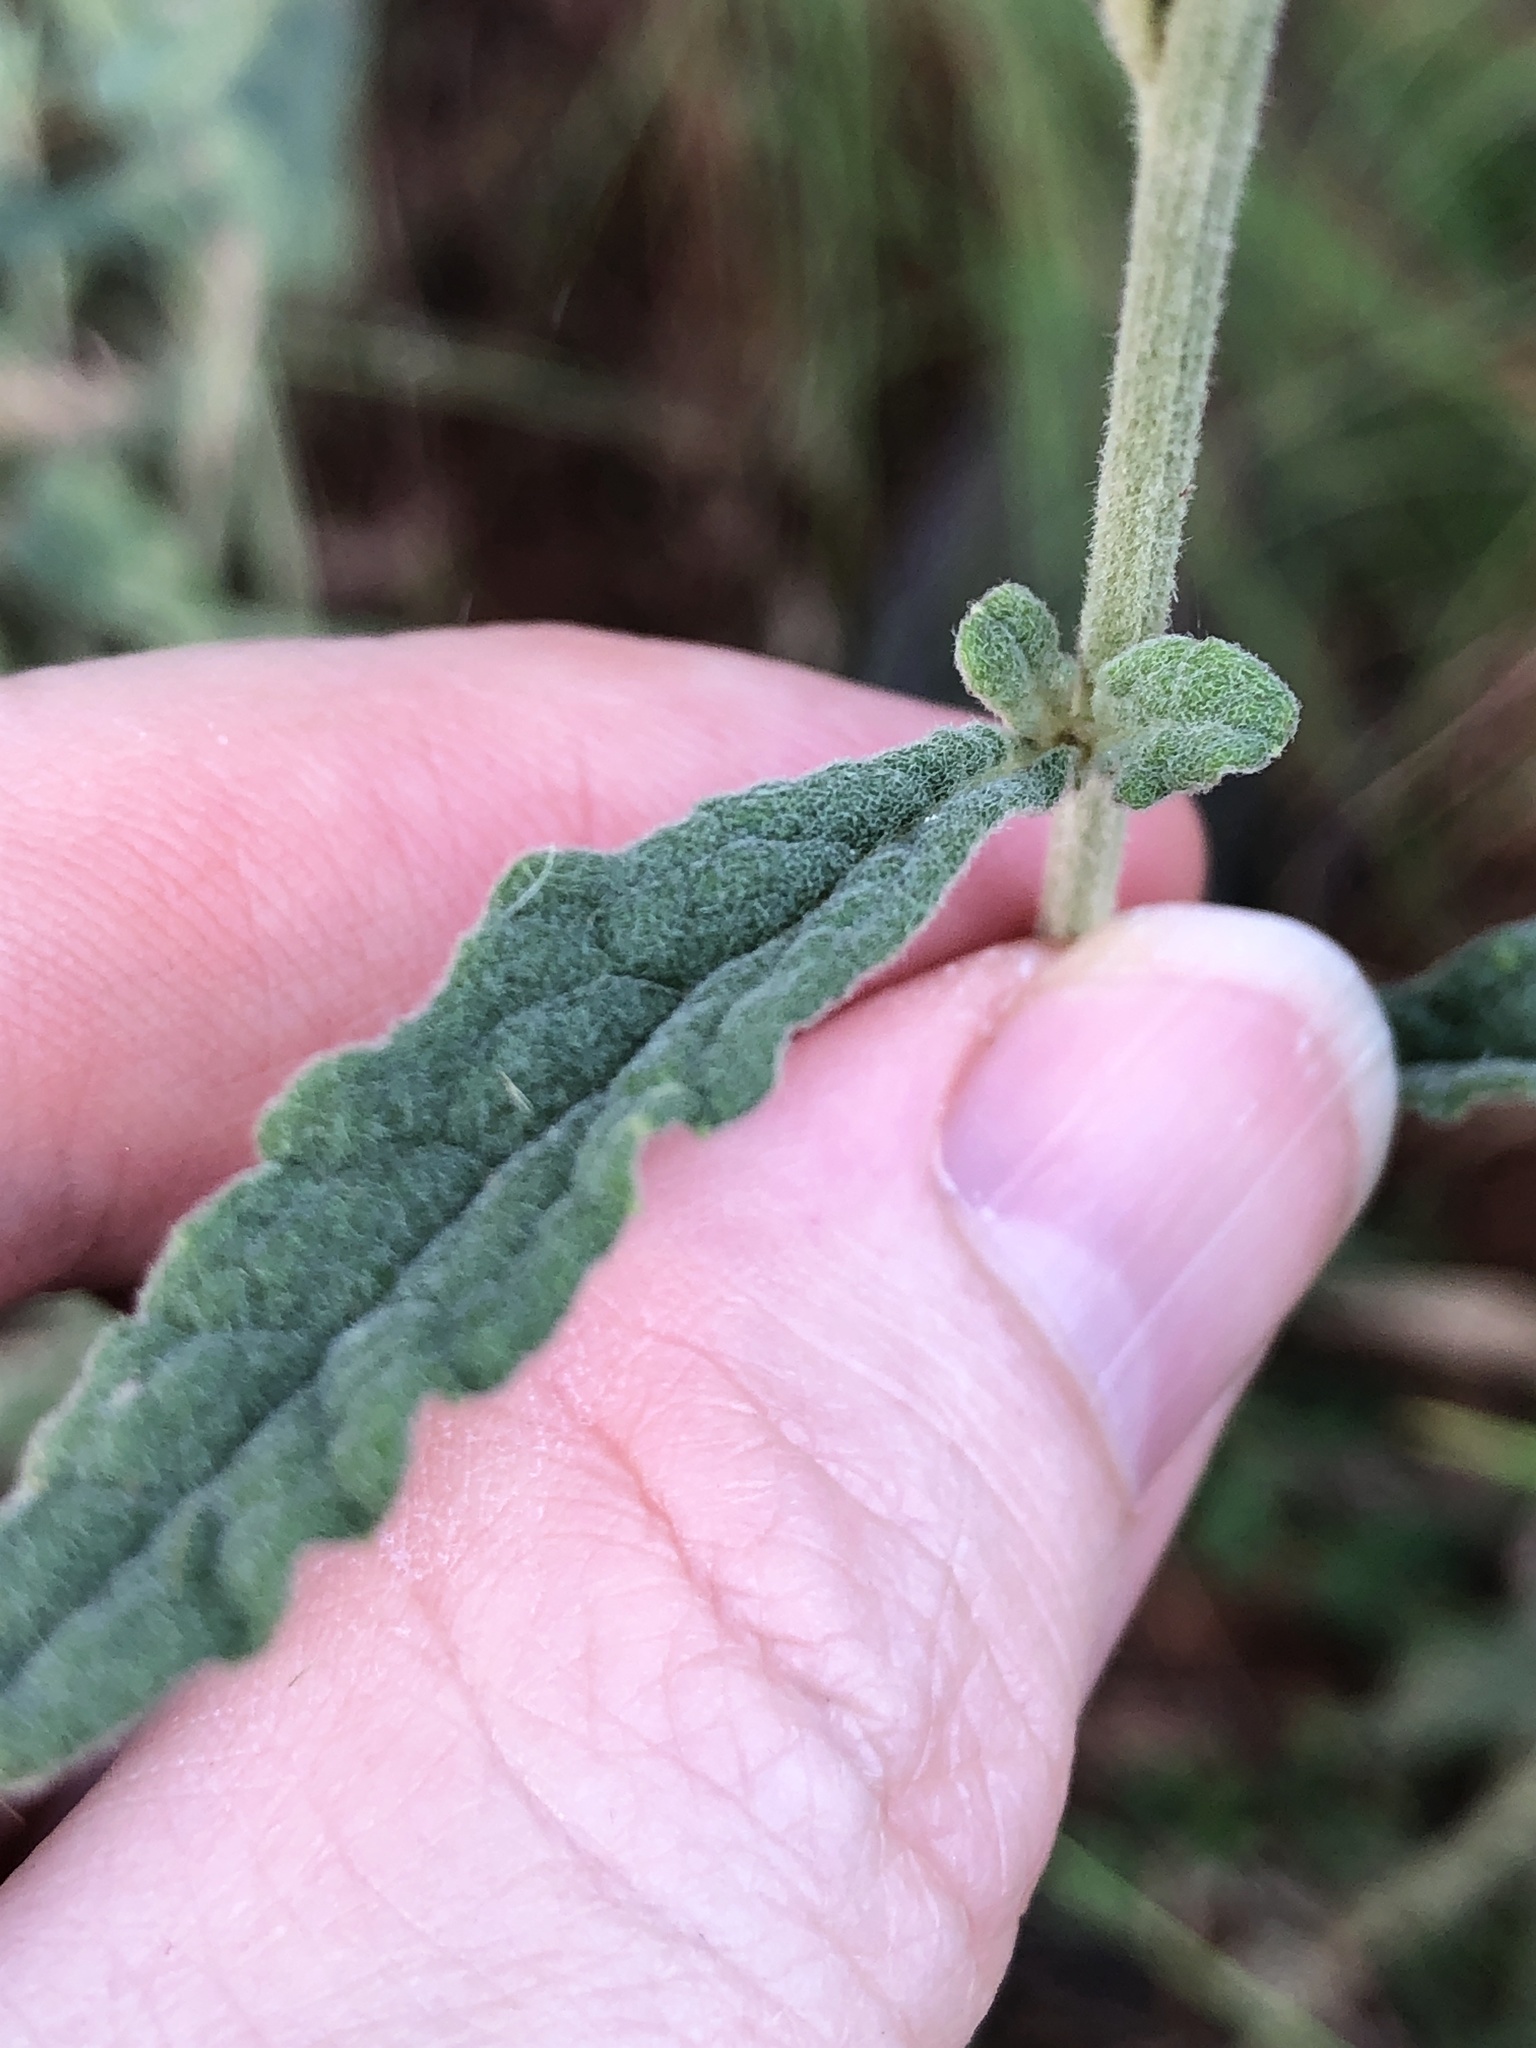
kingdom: Plantae
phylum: Tracheophyta
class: Magnoliopsida
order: Asterales
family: Asteraceae
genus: Cyanthillium
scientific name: Cyanthillium cinereum
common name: Little ironweed
